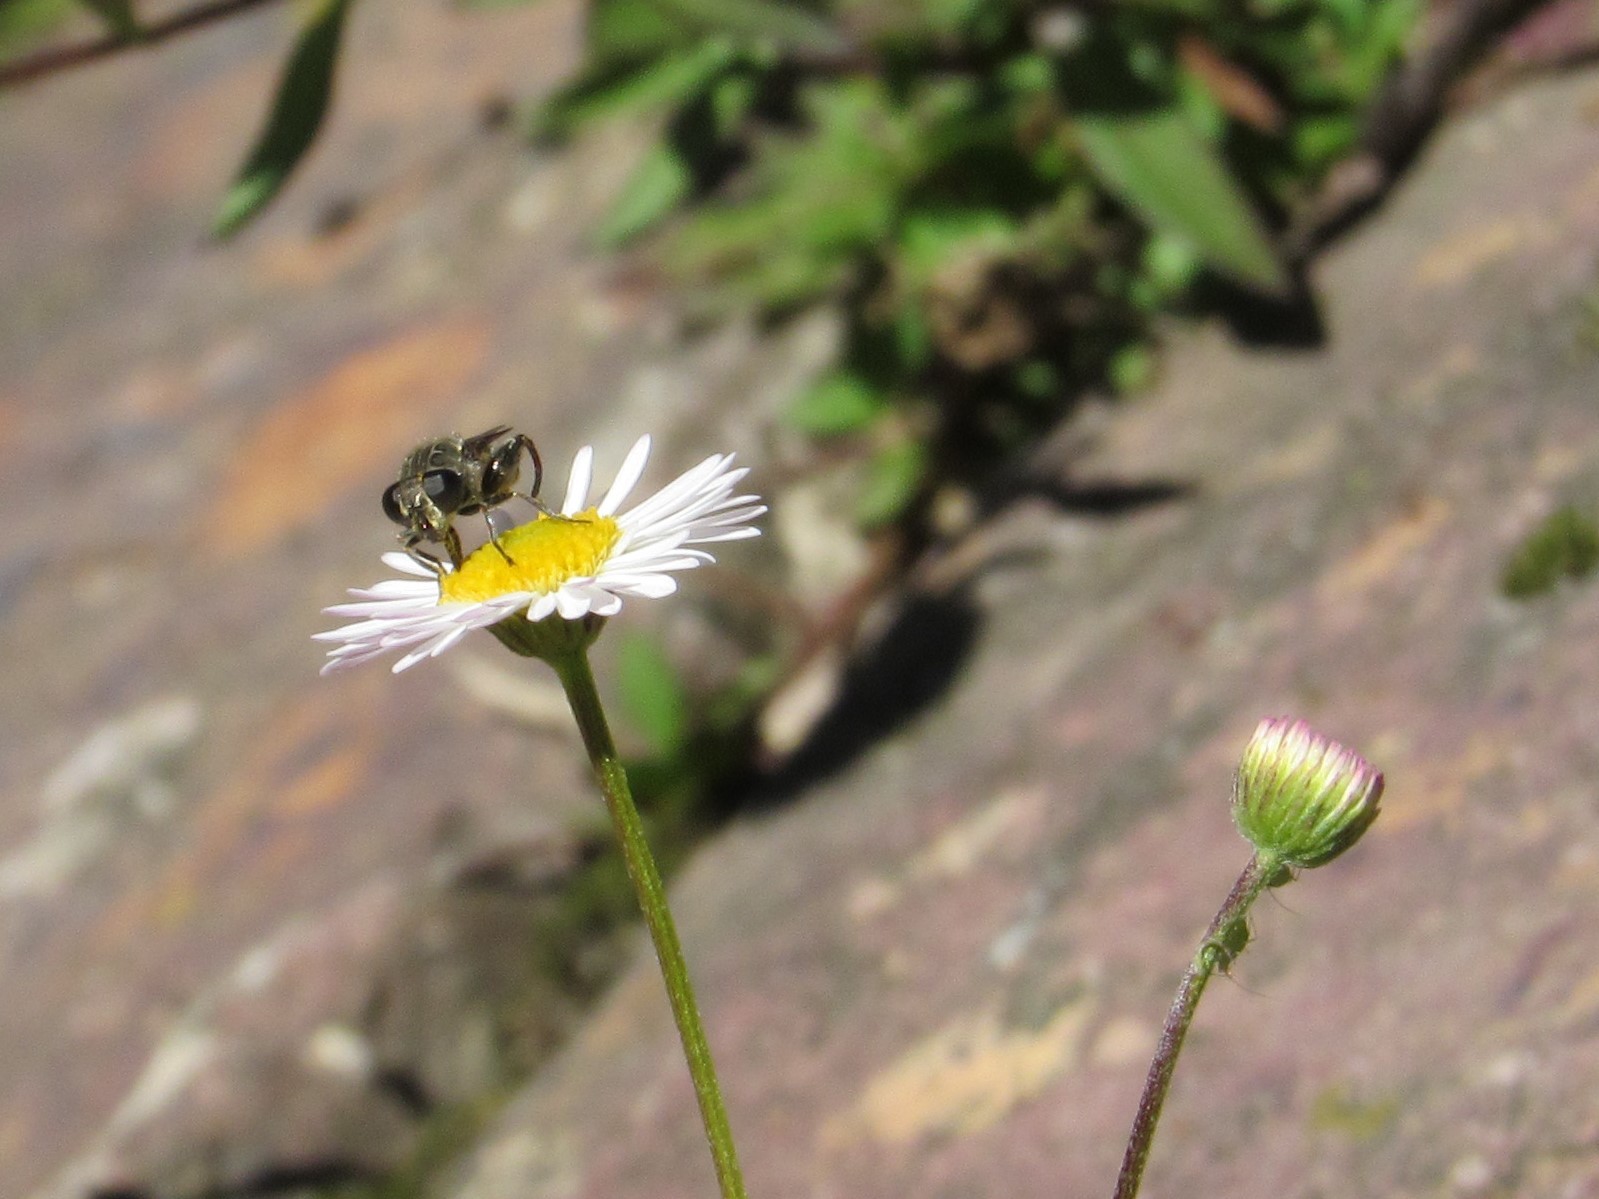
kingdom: Animalia
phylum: Arthropoda
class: Insecta
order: Diptera
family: Syrphidae
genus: Asemosyrphus
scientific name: Asemosyrphus
